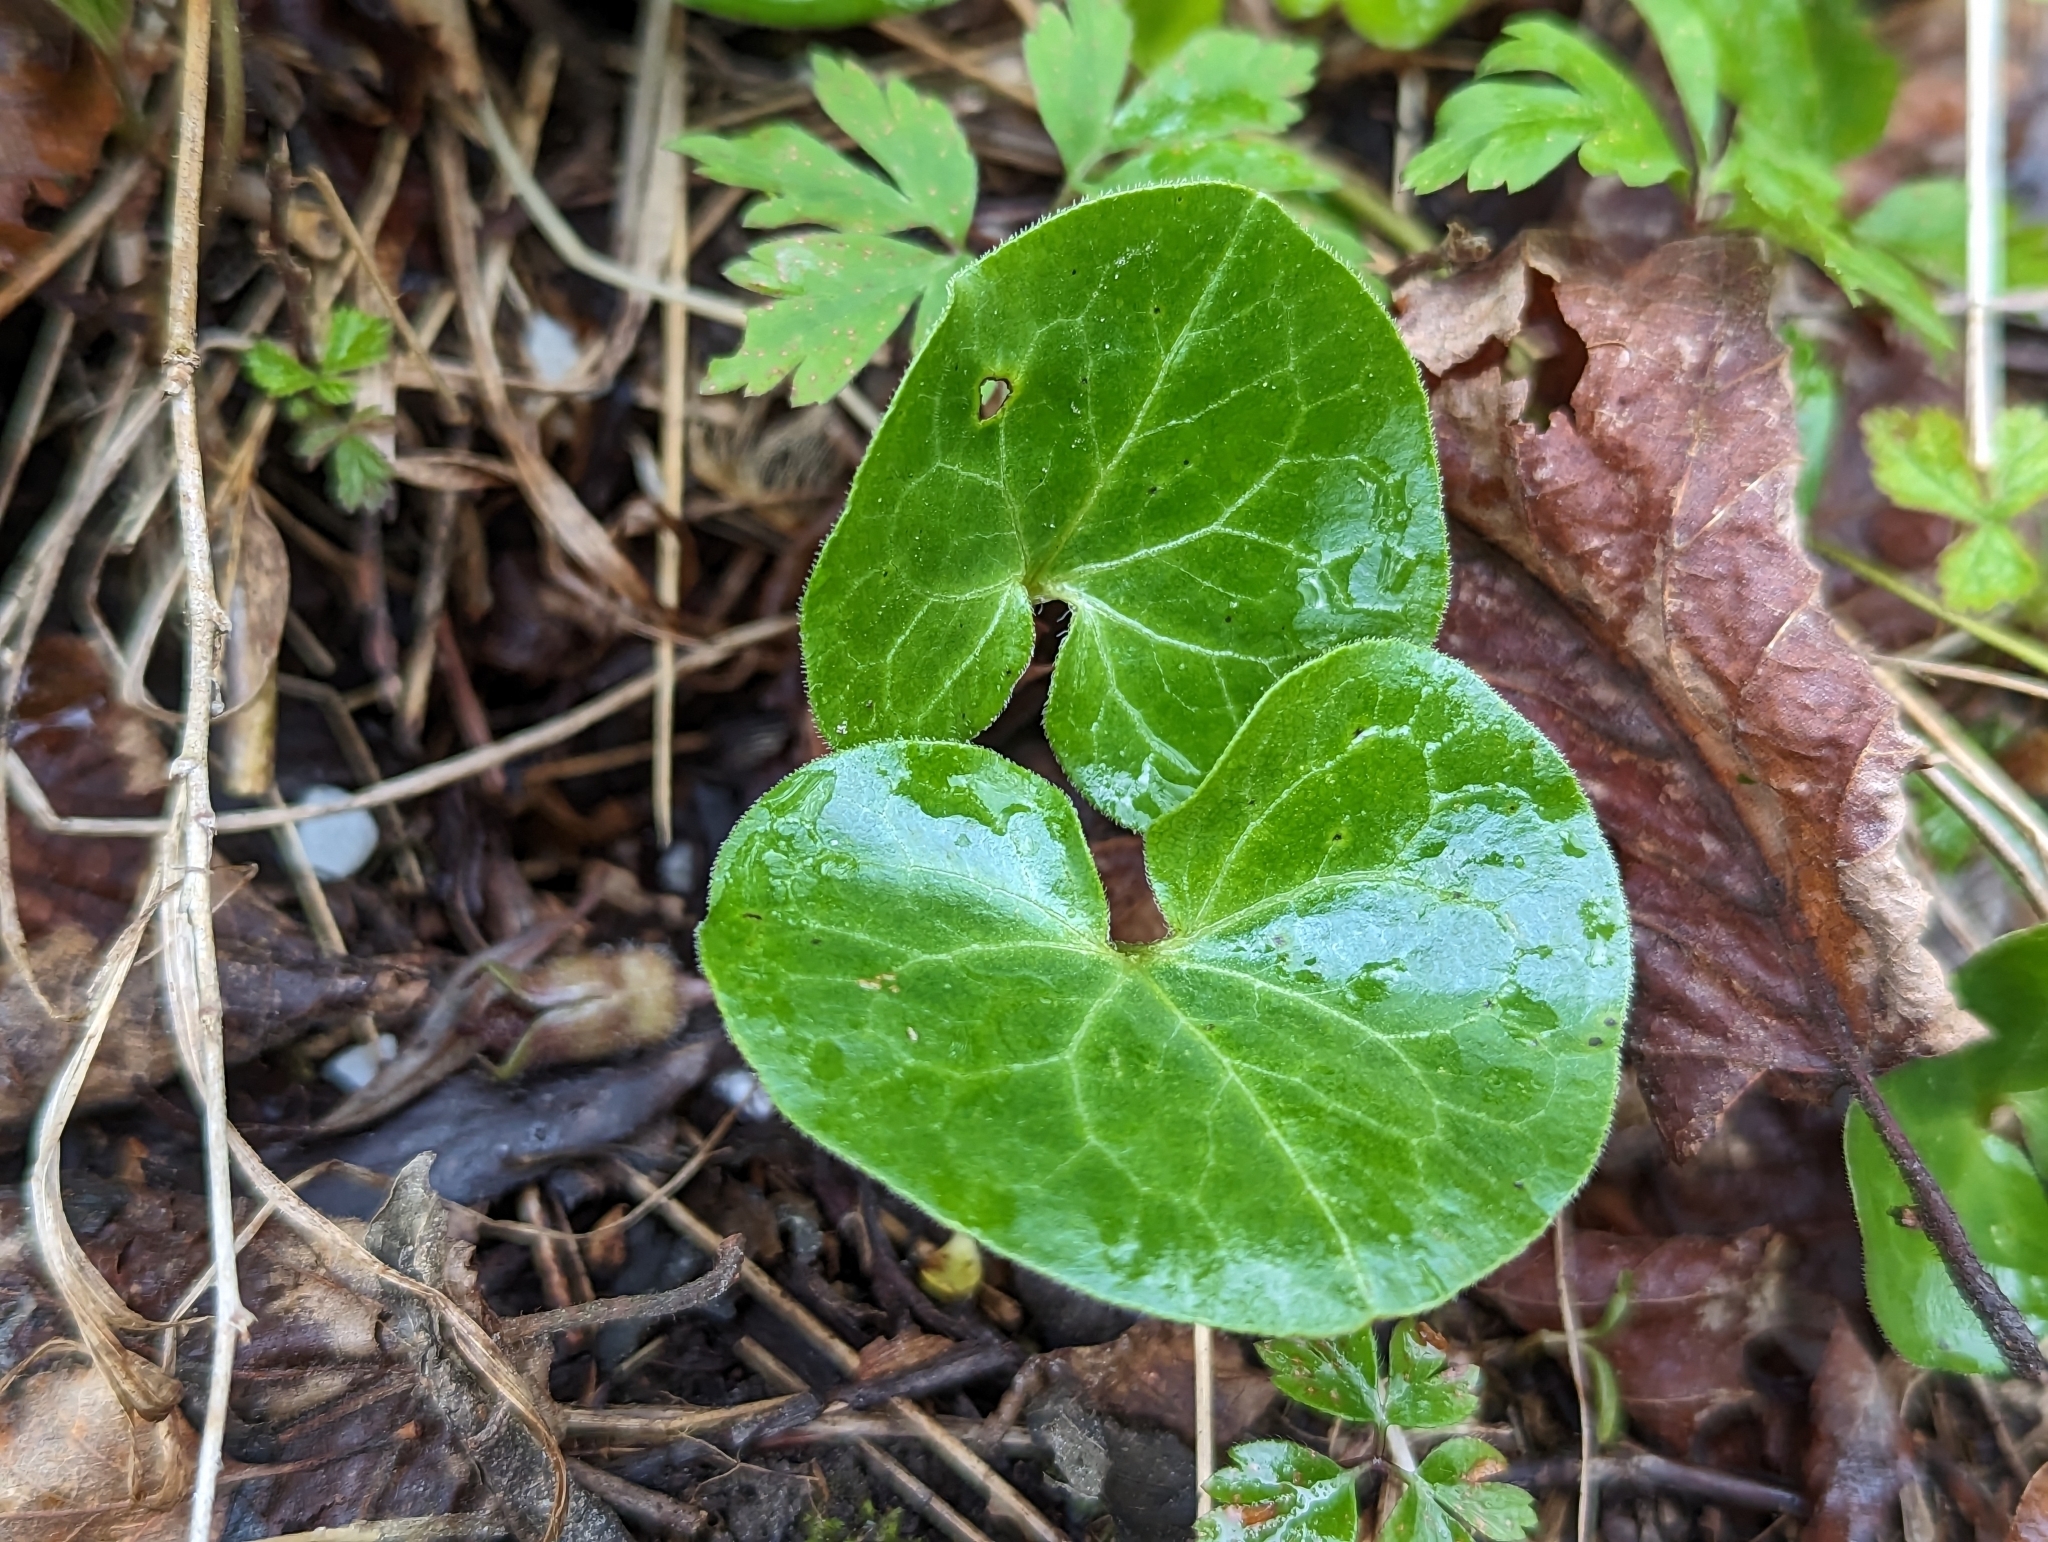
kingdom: Plantae
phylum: Tracheophyta
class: Magnoliopsida
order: Piperales
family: Aristolochiaceae
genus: Asarum
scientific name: Asarum europaeum
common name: Asarabacca
